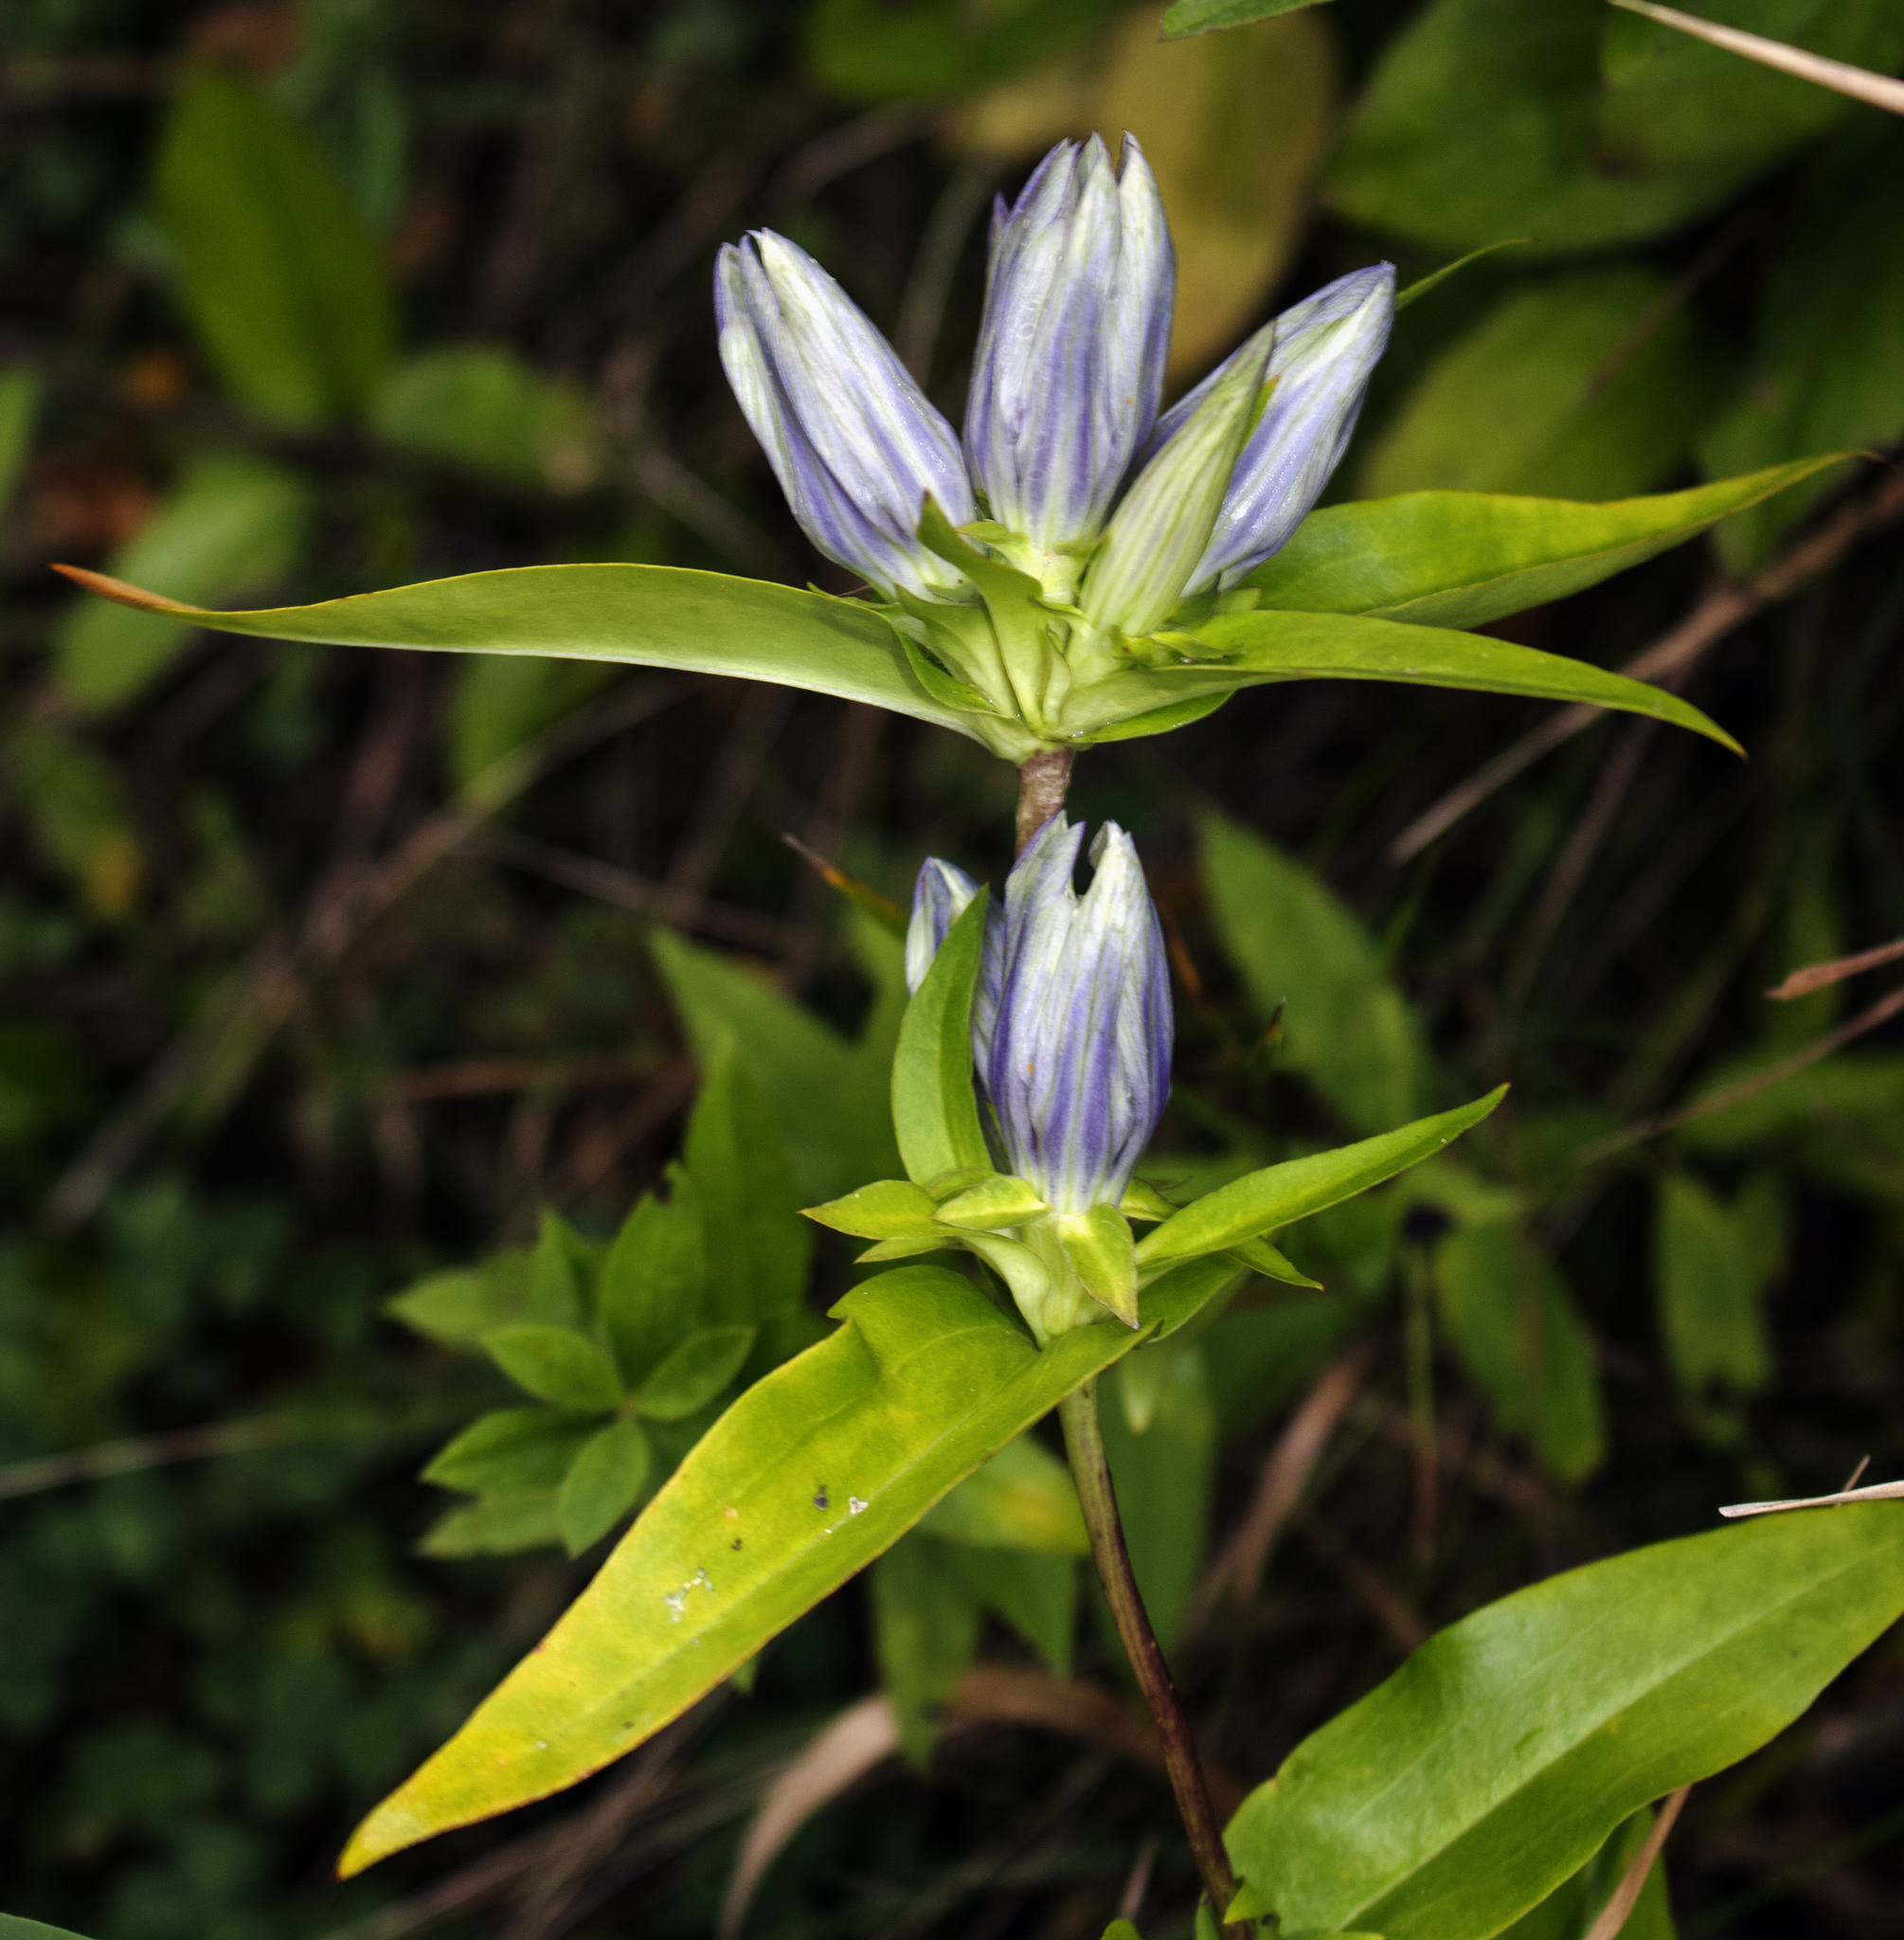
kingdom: Plantae
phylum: Tracheophyta
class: Magnoliopsida
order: Gentianales
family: Gentianaceae
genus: Gentiana
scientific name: Gentiana pallidocyanea
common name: Hybrid bottle gentian
